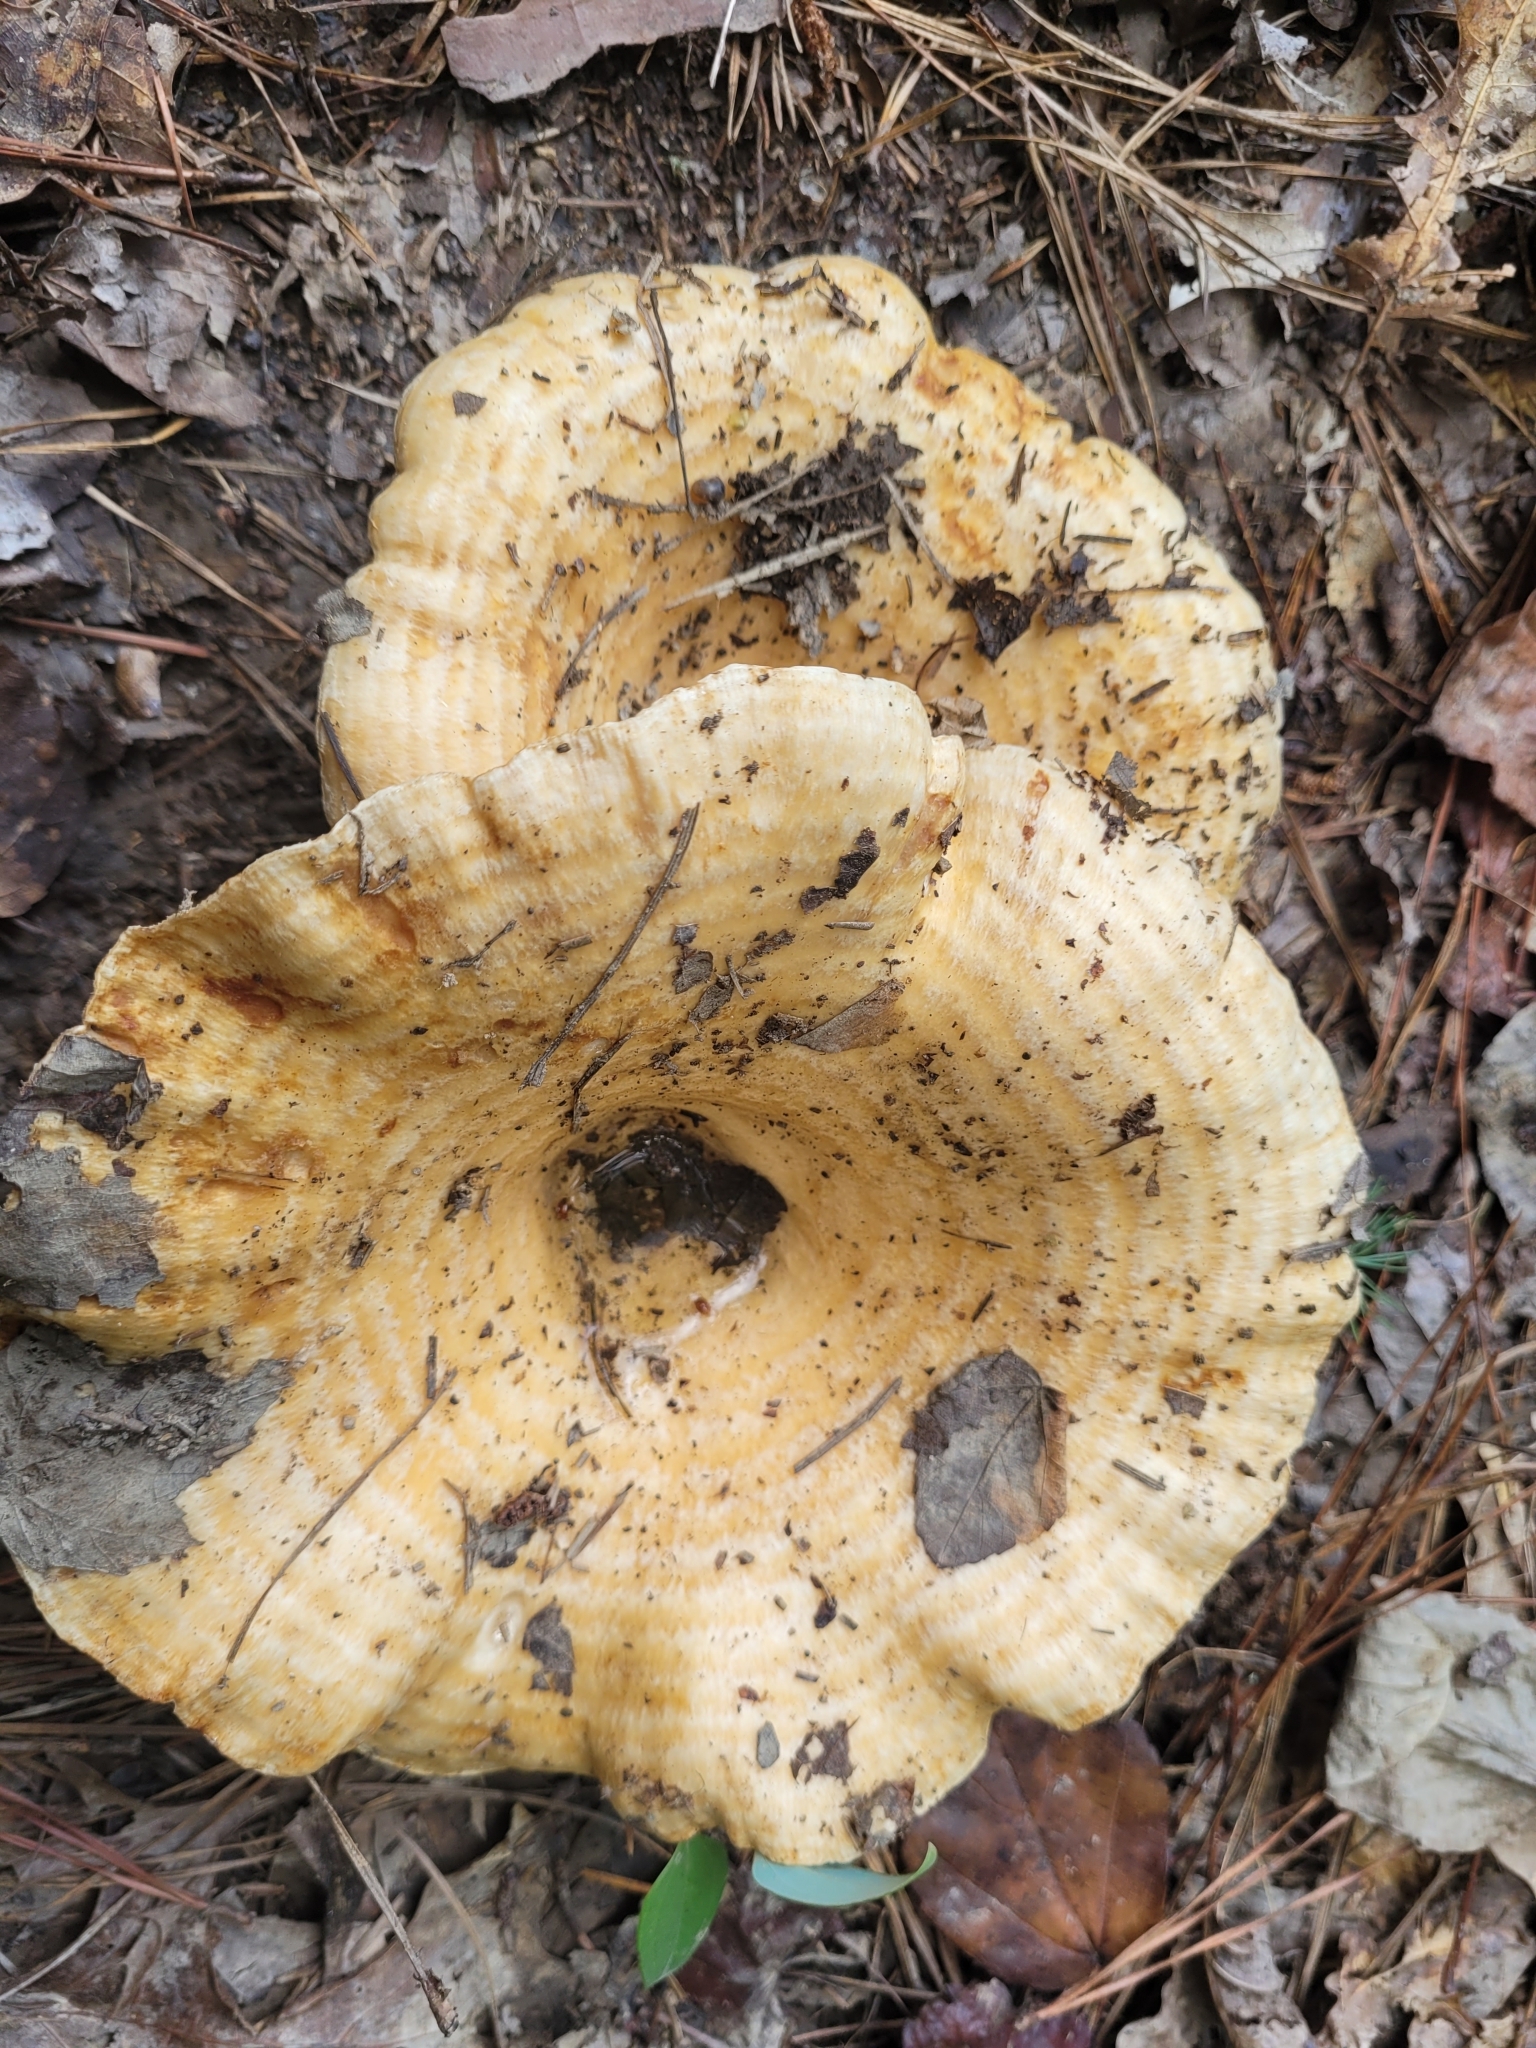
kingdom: Fungi
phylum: Basidiomycota
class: Agaricomycetes
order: Russulales
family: Russulaceae
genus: Lactarius
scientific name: Lactarius psammicola
